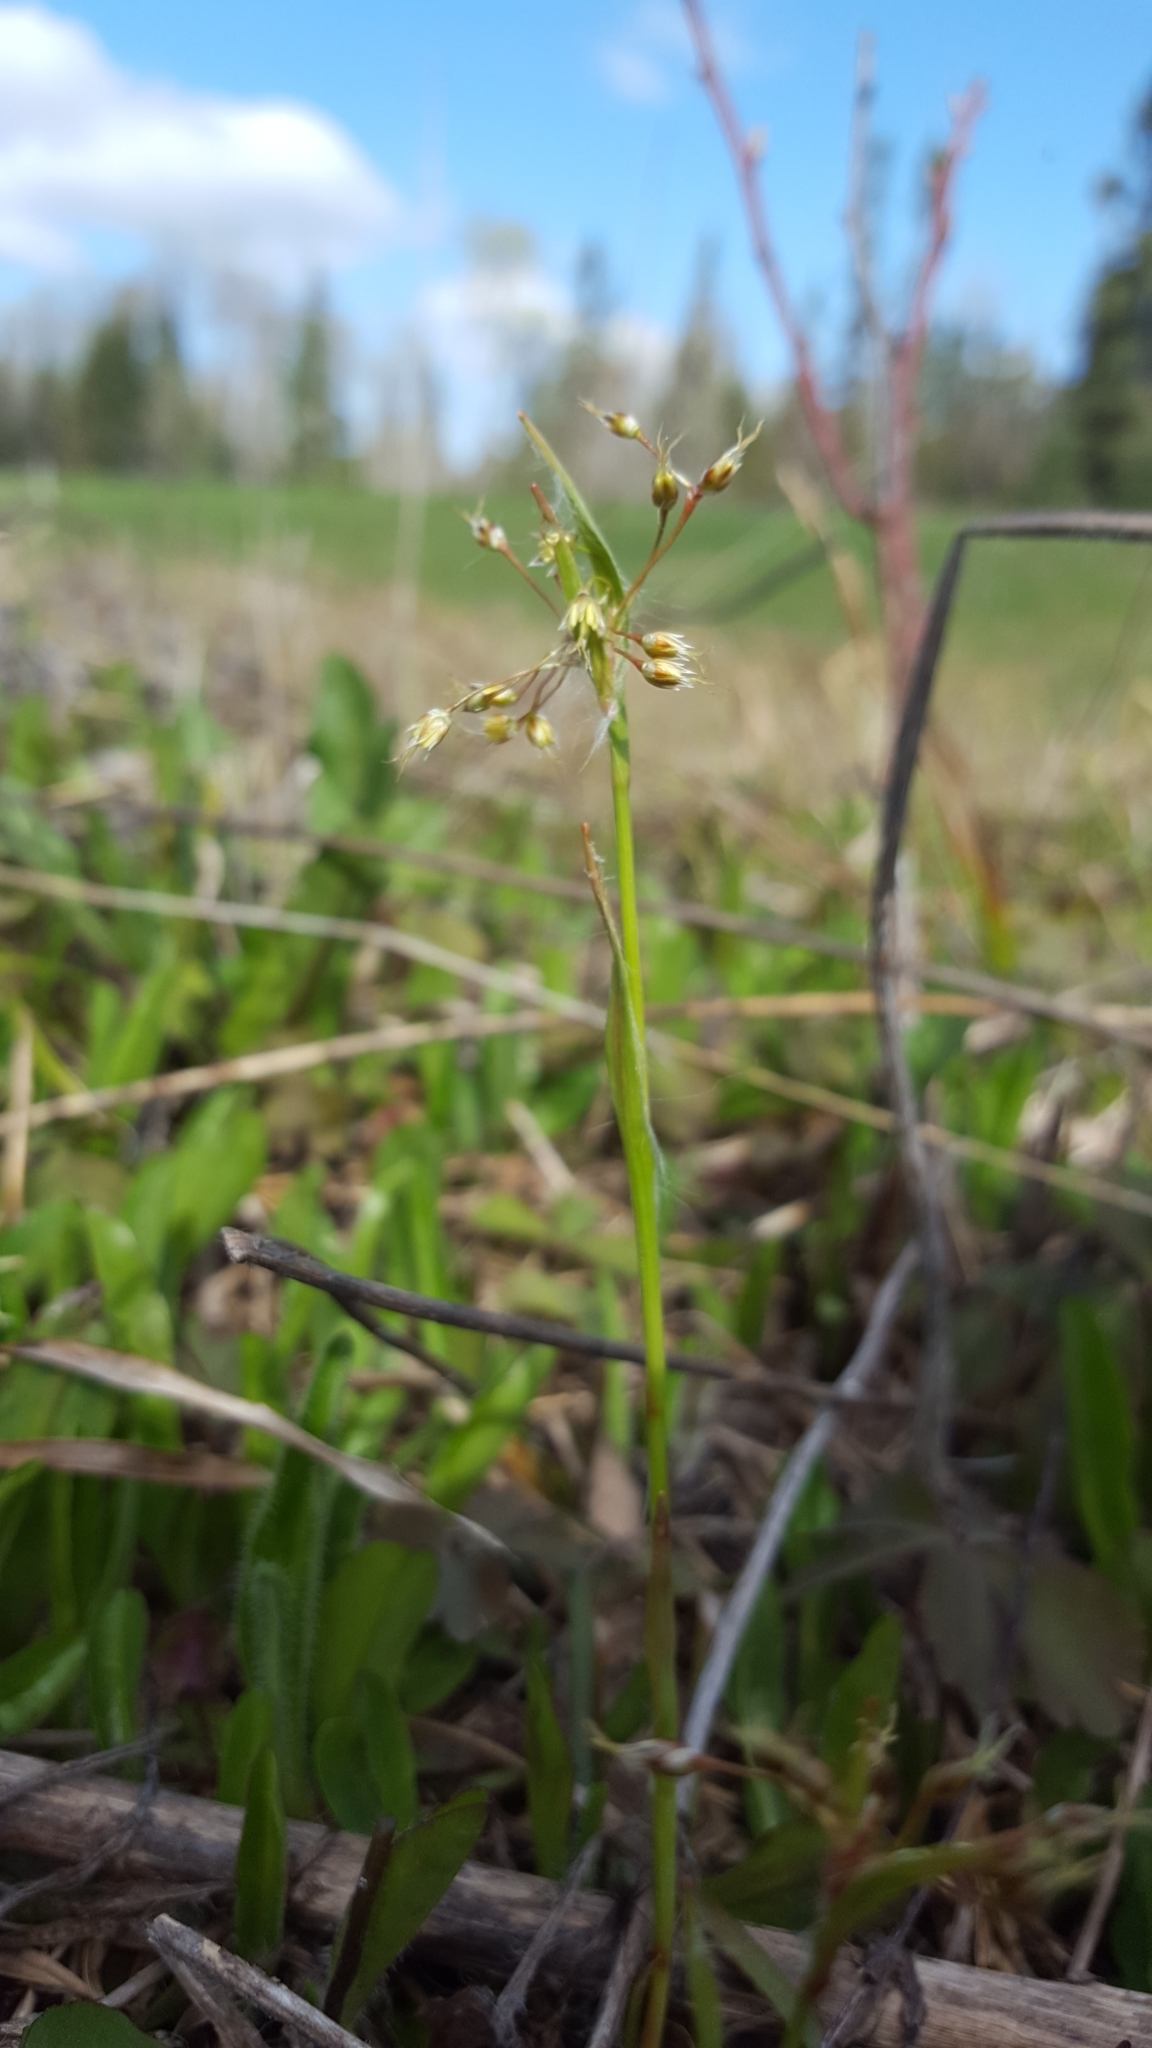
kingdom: Plantae
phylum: Tracheophyta
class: Liliopsida
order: Poales
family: Juncaceae
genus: Luzula
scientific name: Luzula acuminata
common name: Hairy woodrush
